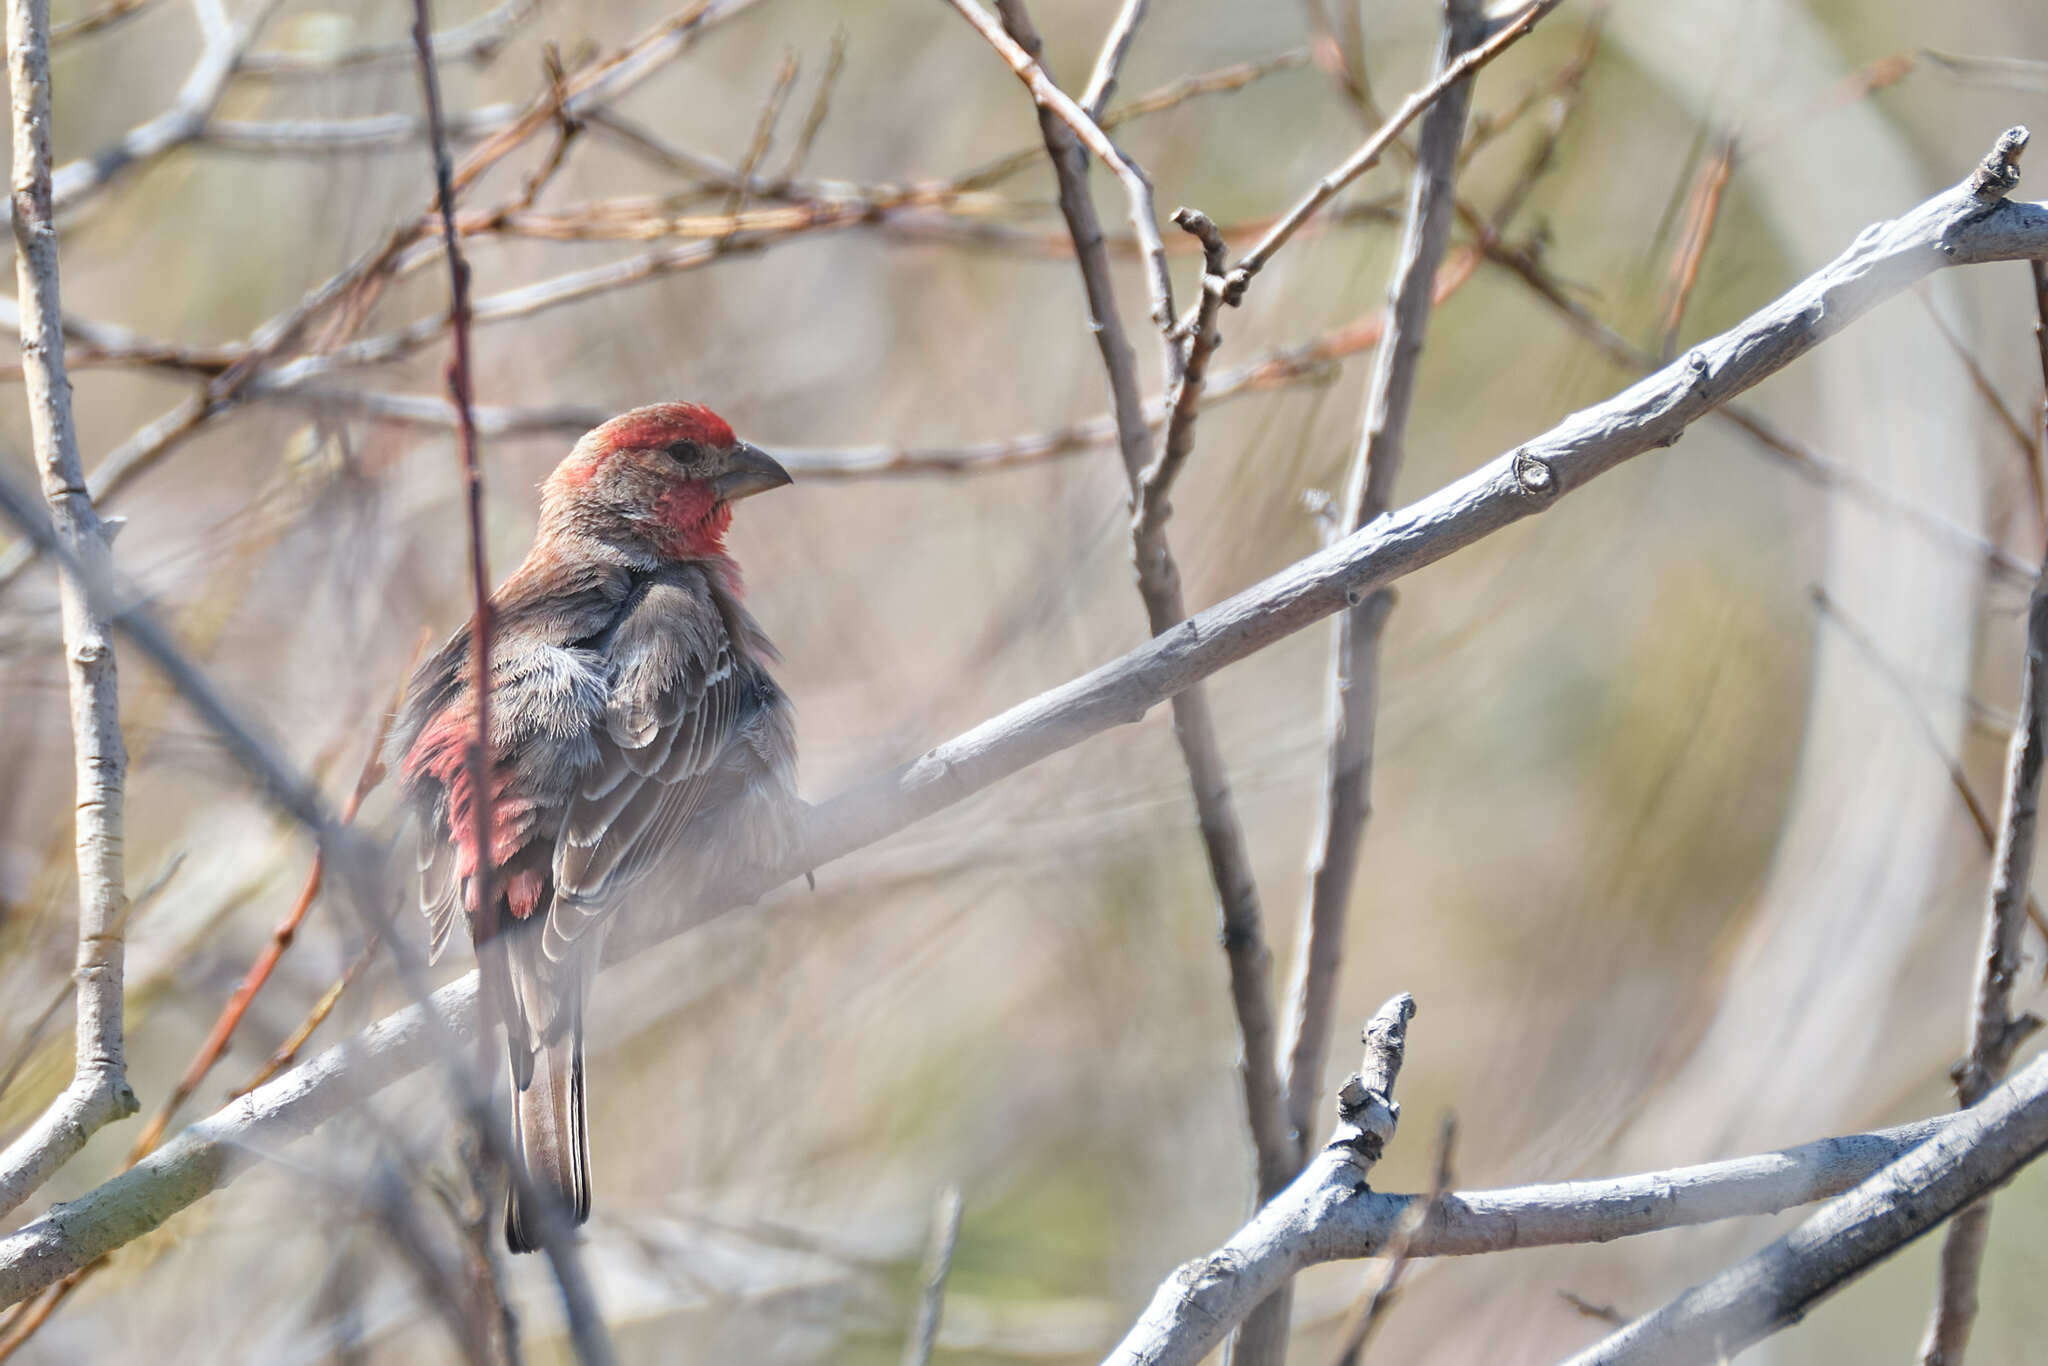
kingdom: Animalia
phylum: Chordata
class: Aves
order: Passeriformes
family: Fringillidae
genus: Haemorhous
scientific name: Haemorhous mexicanus
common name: House finch
